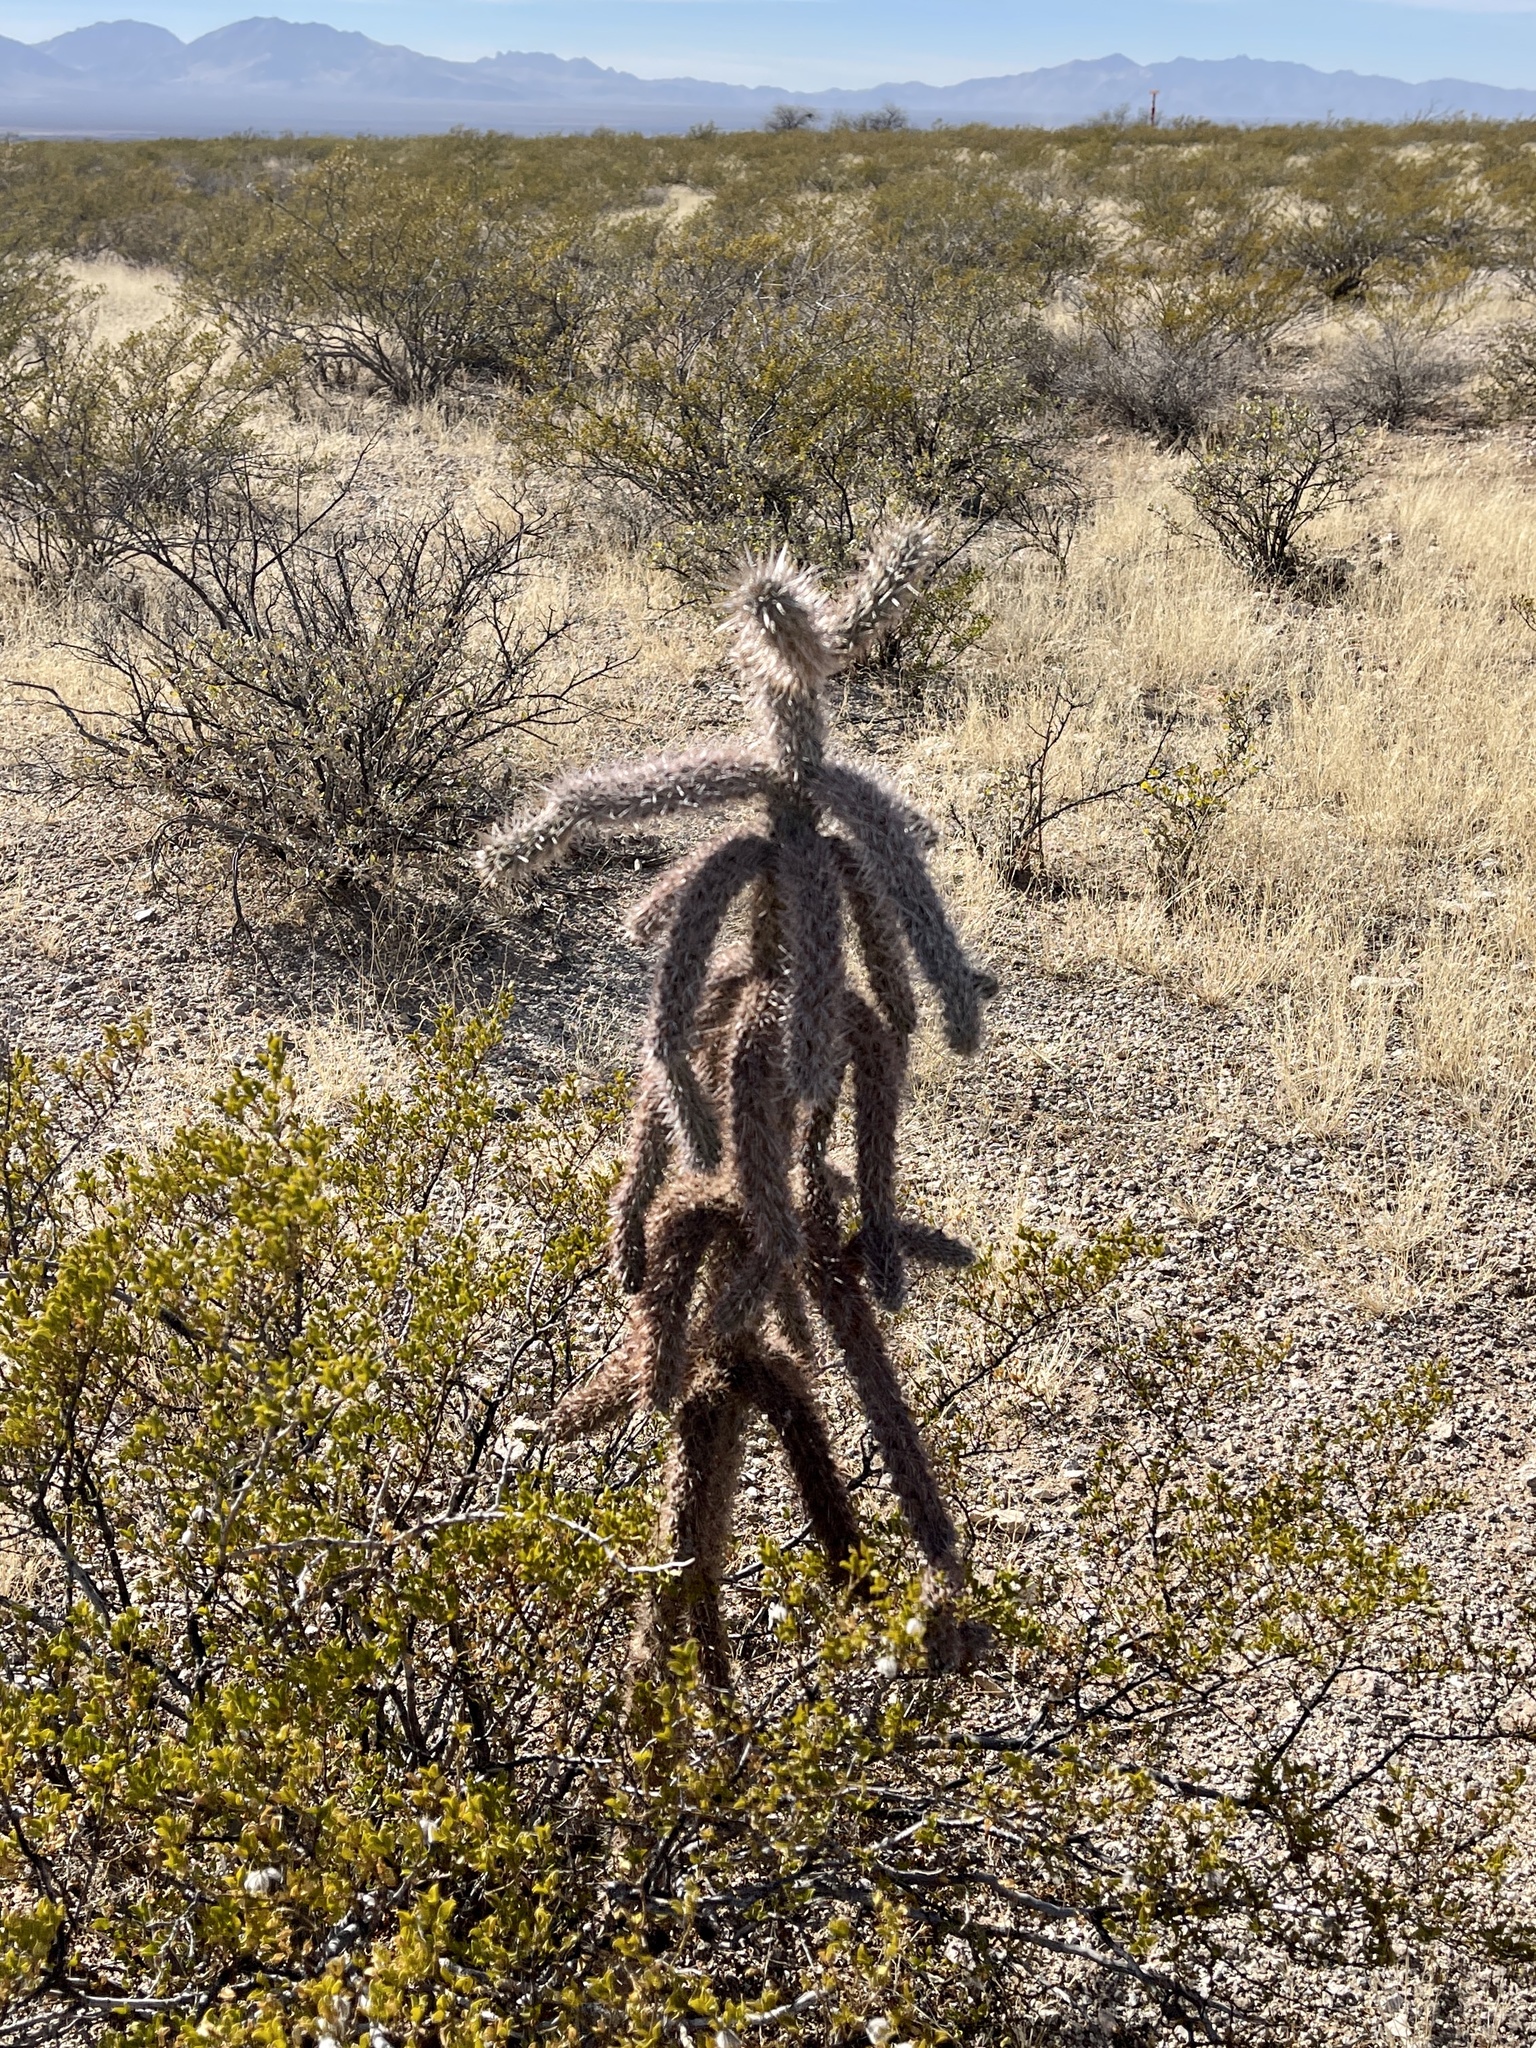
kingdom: Plantae
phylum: Tracheophyta
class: Magnoliopsida
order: Caryophyllales
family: Cactaceae
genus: Cylindropuntia
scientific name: Cylindropuntia imbricata
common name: Candelabrum cactus
